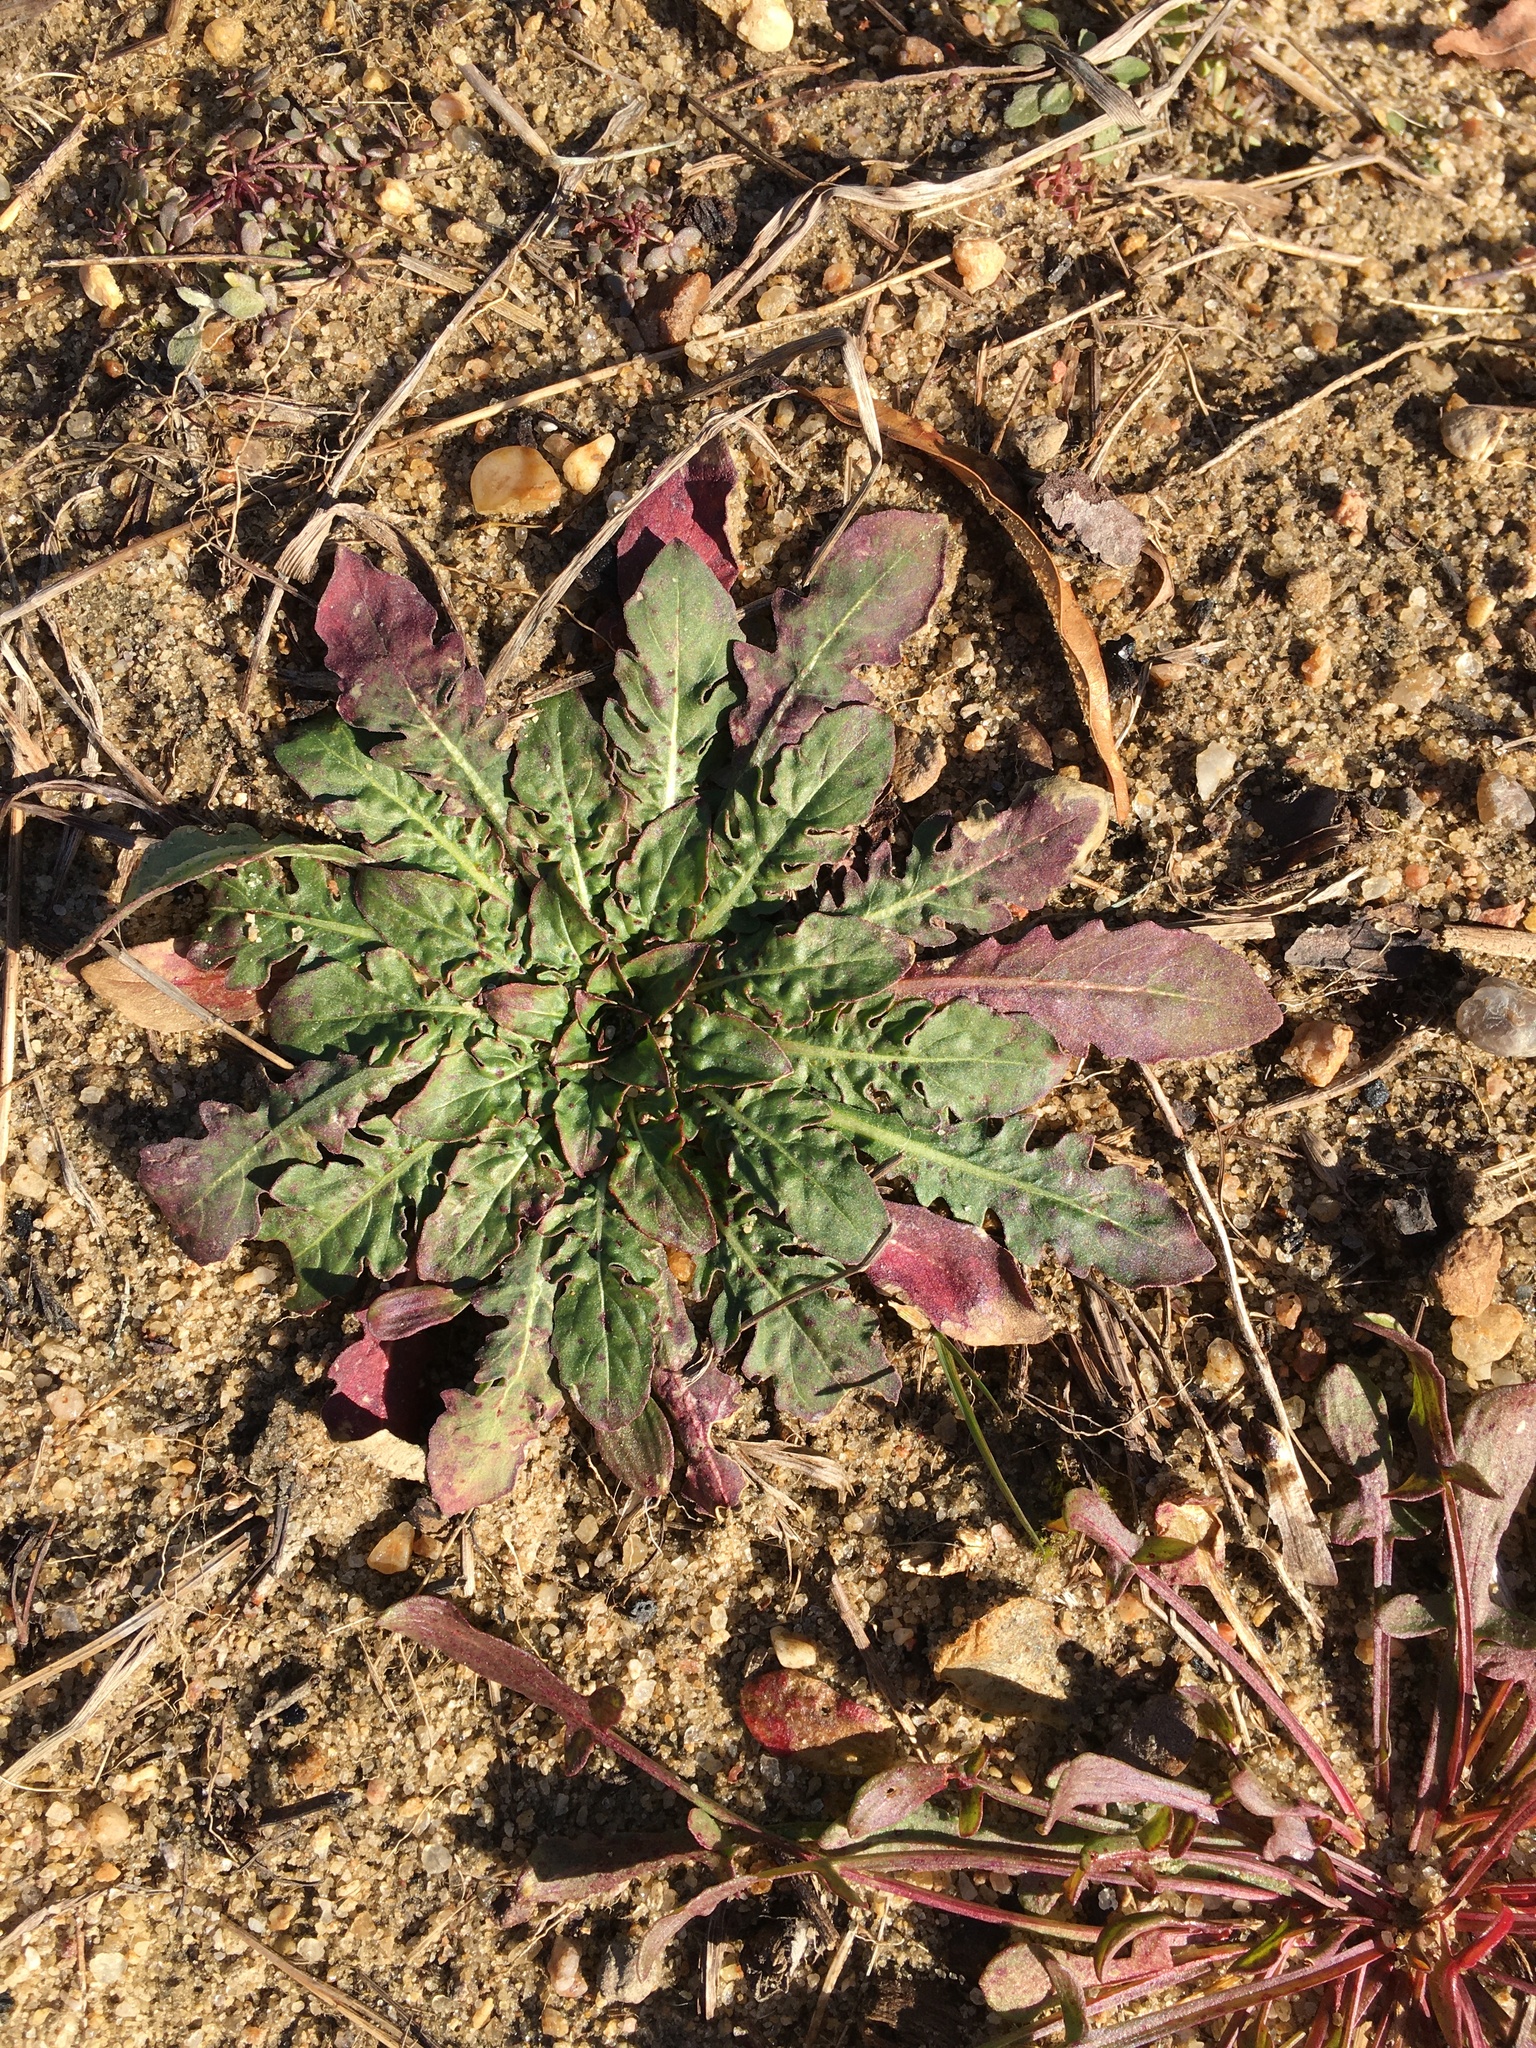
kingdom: Plantae
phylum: Tracheophyta
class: Magnoliopsida
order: Myrtales
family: Onagraceae
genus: Oenothera
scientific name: Oenothera laciniata
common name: Cut-leaved evening-primrose
